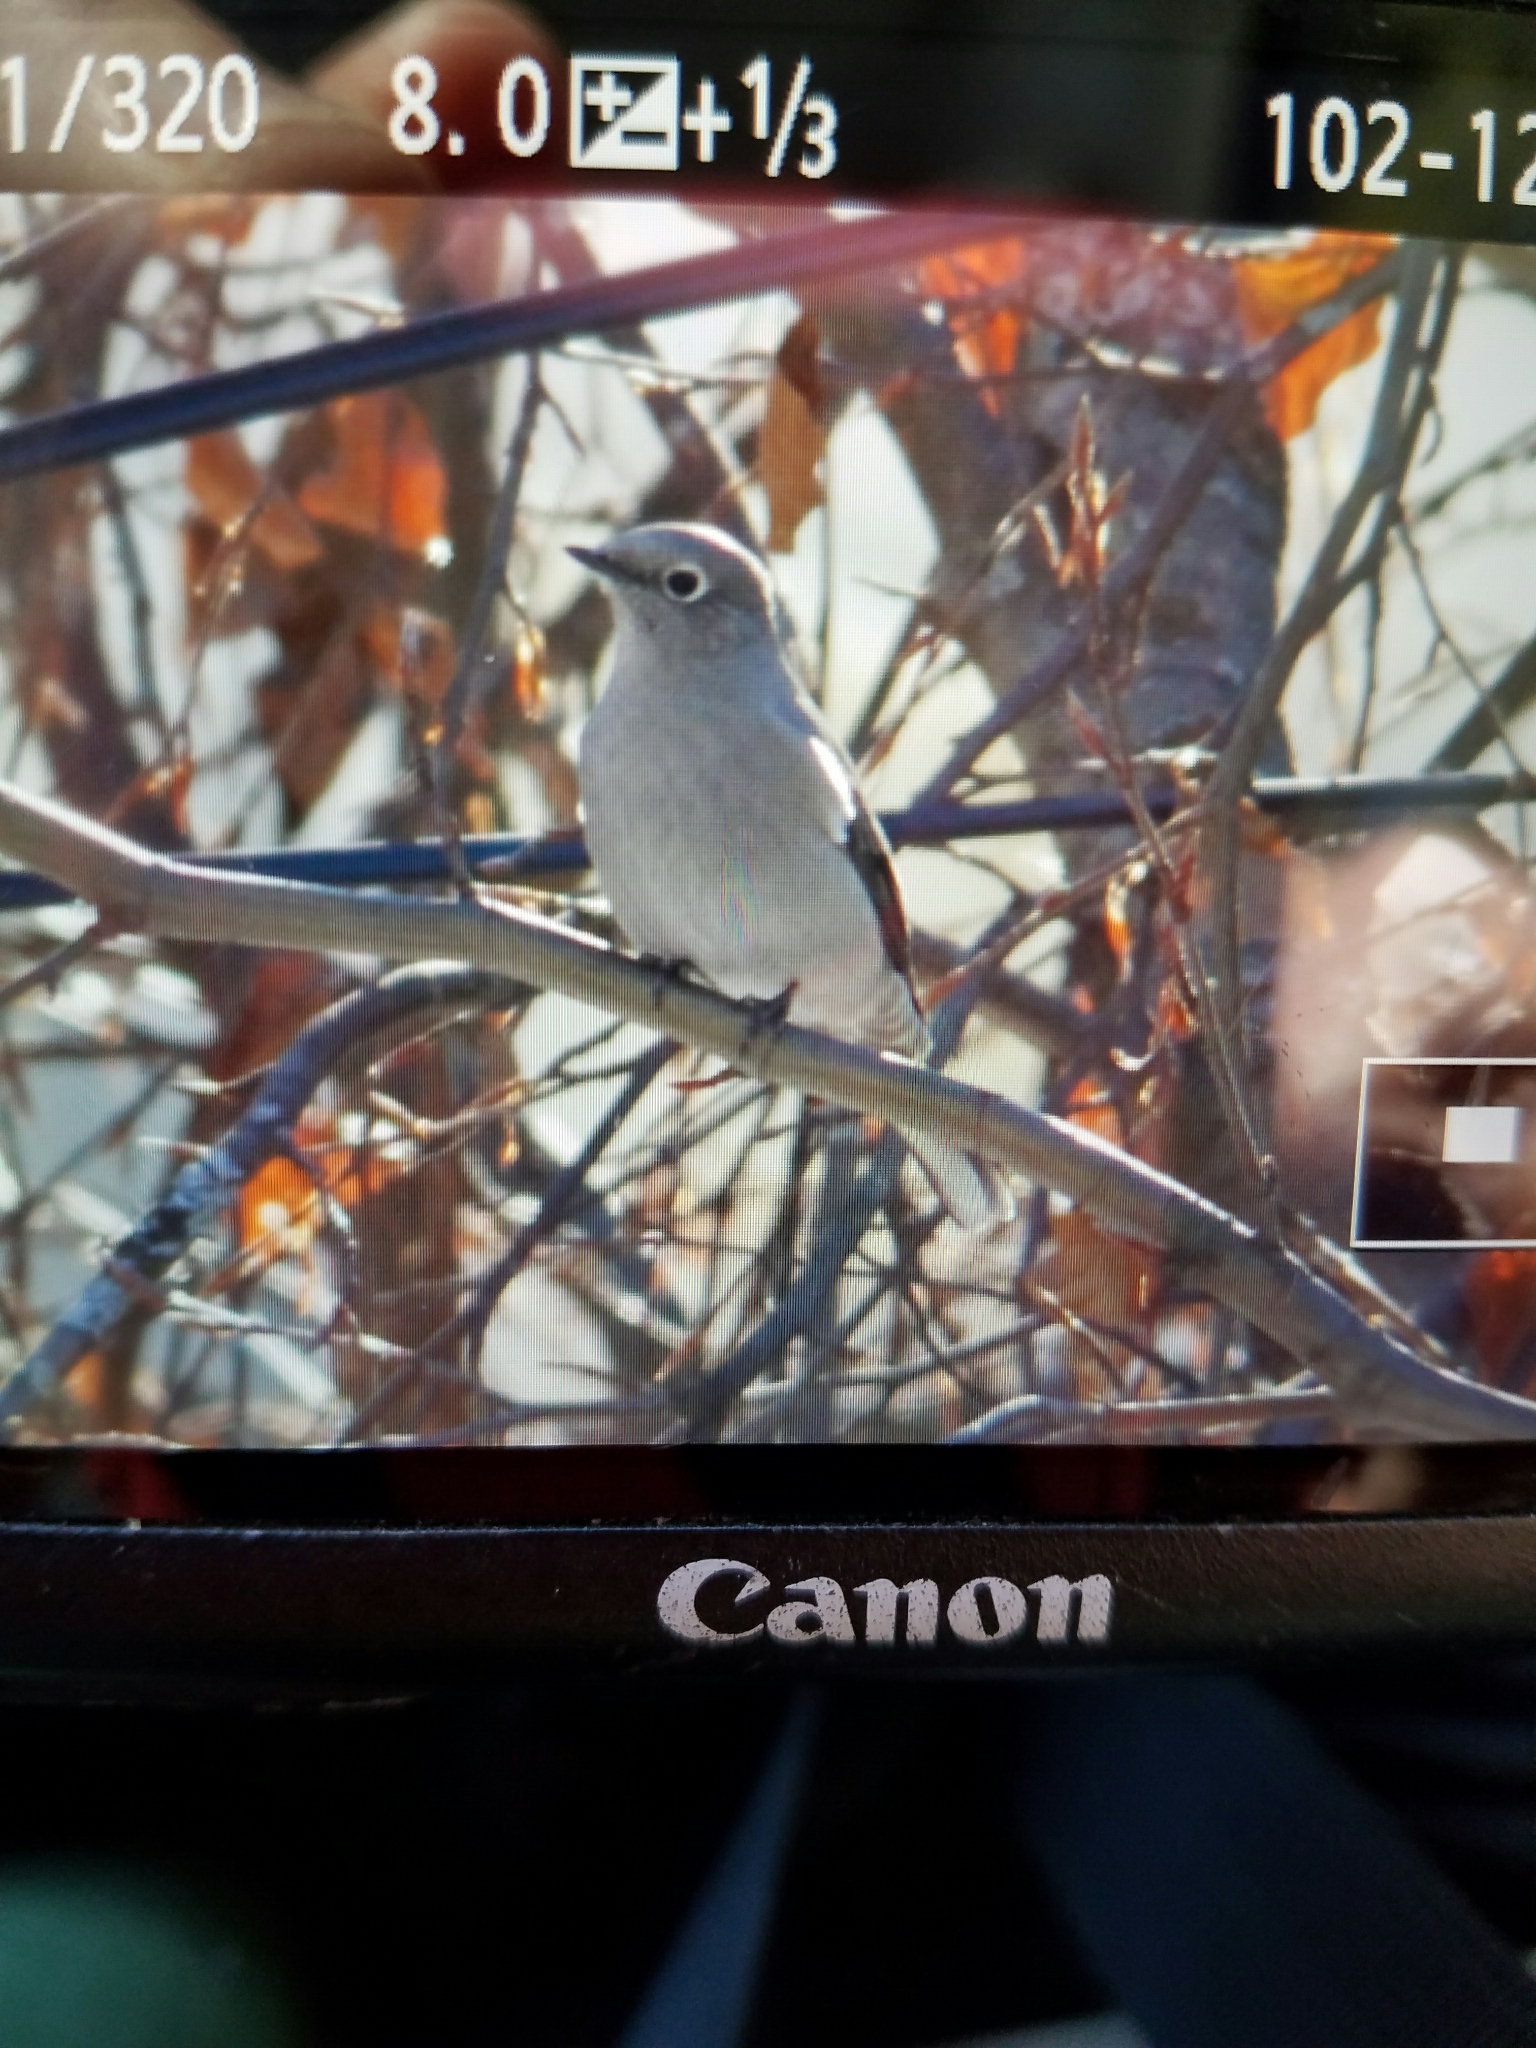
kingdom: Animalia
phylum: Chordata
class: Aves
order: Passeriformes
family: Turdidae
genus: Myadestes
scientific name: Myadestes townsendi
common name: Townsend's solitaire
